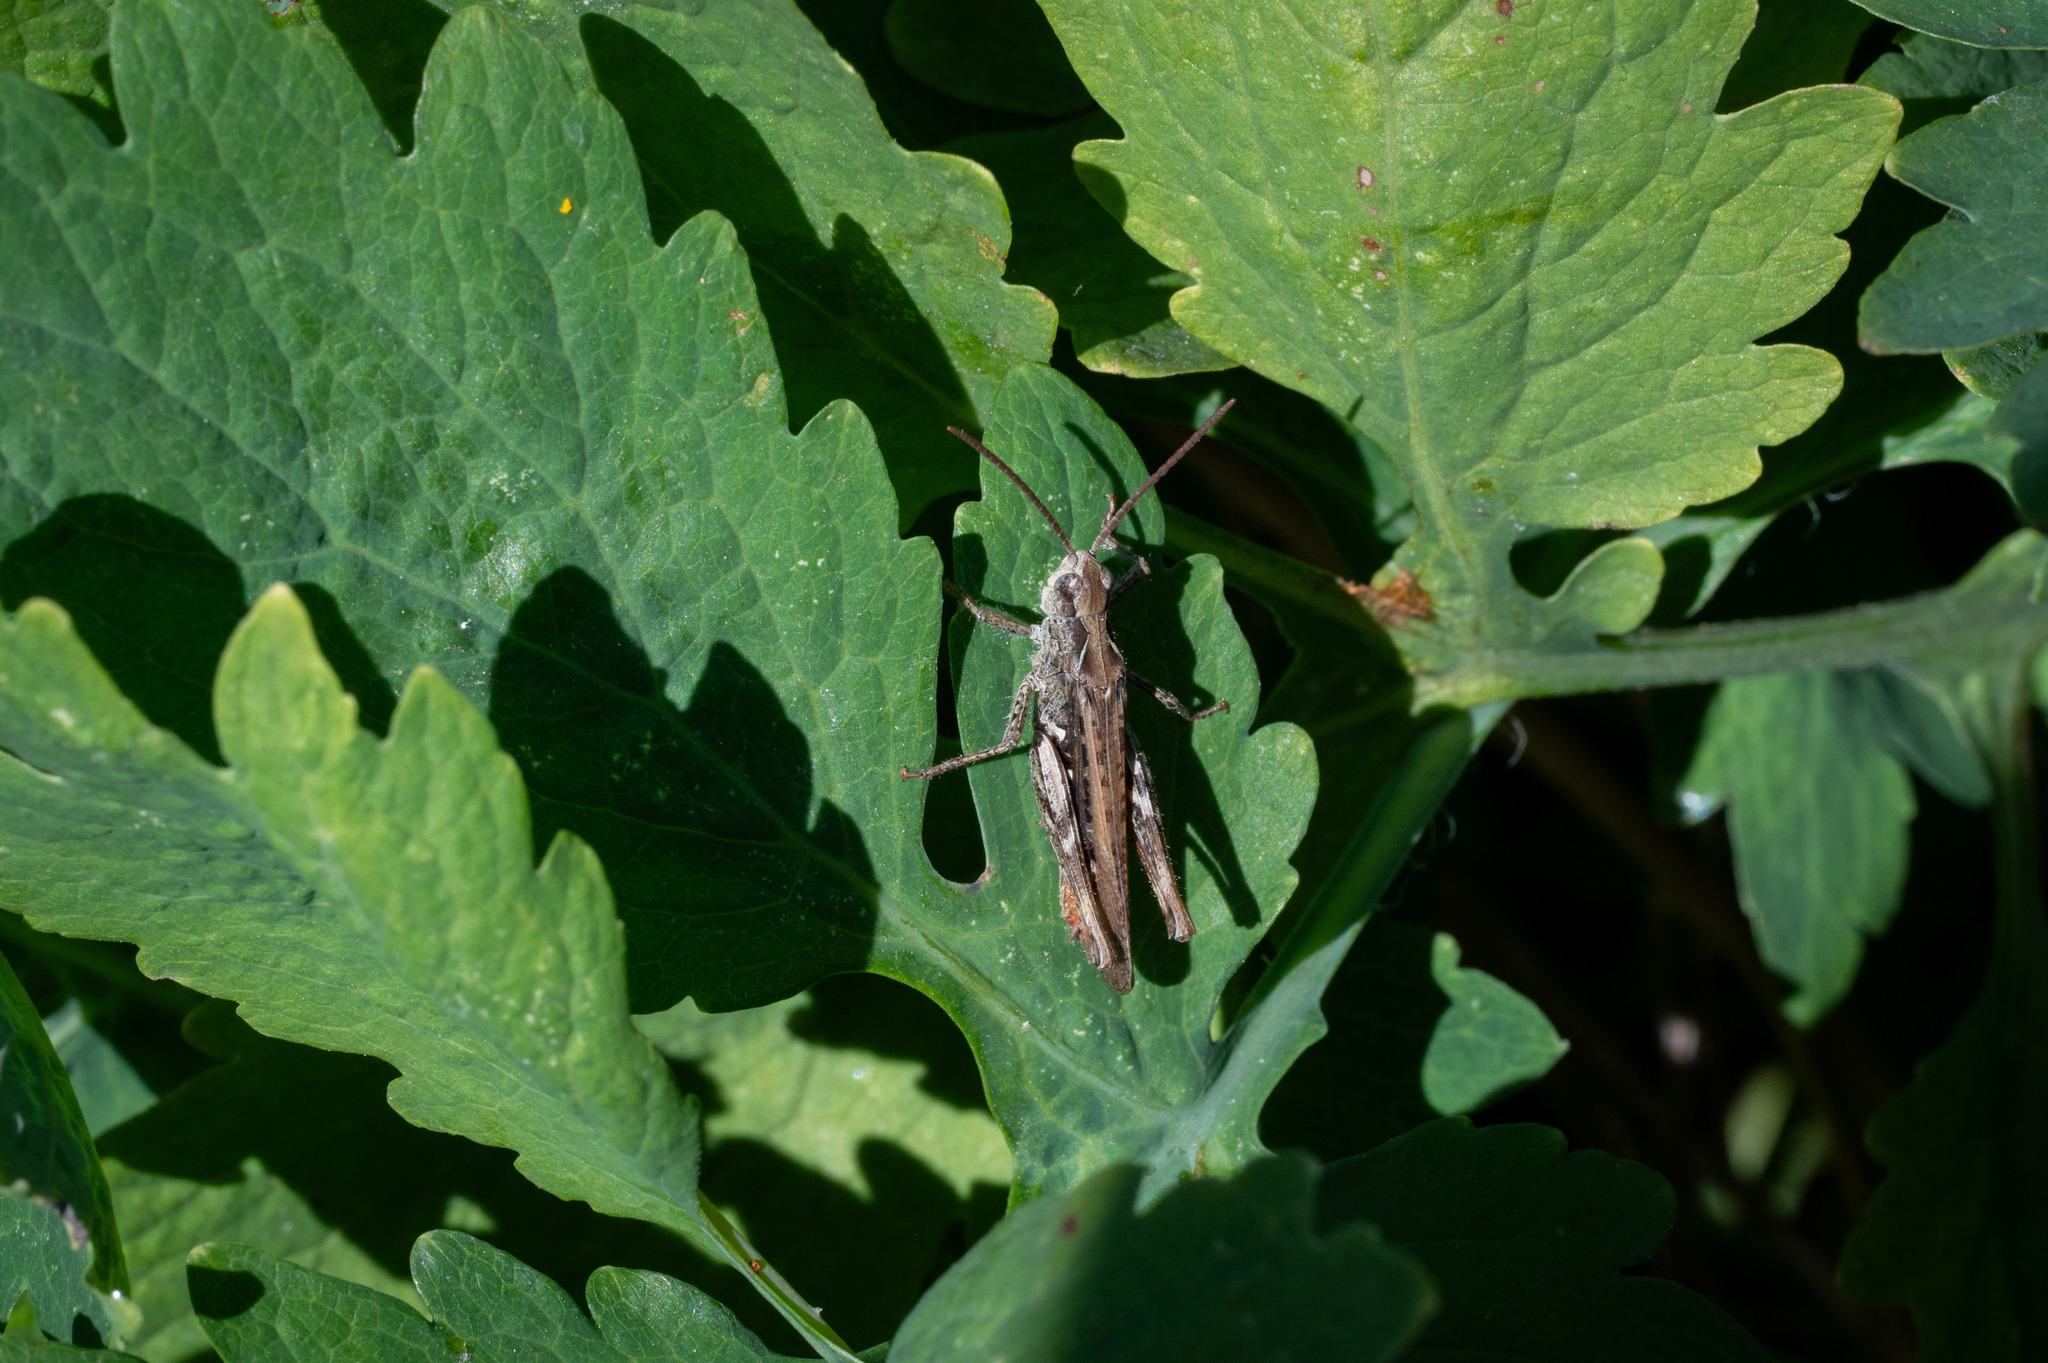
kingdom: Animalia
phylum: Arthropoda
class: Insecta
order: Orthoptera
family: Acrididae
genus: Chorthippus
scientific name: Chorthippus brunneus
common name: Field grasshopper
